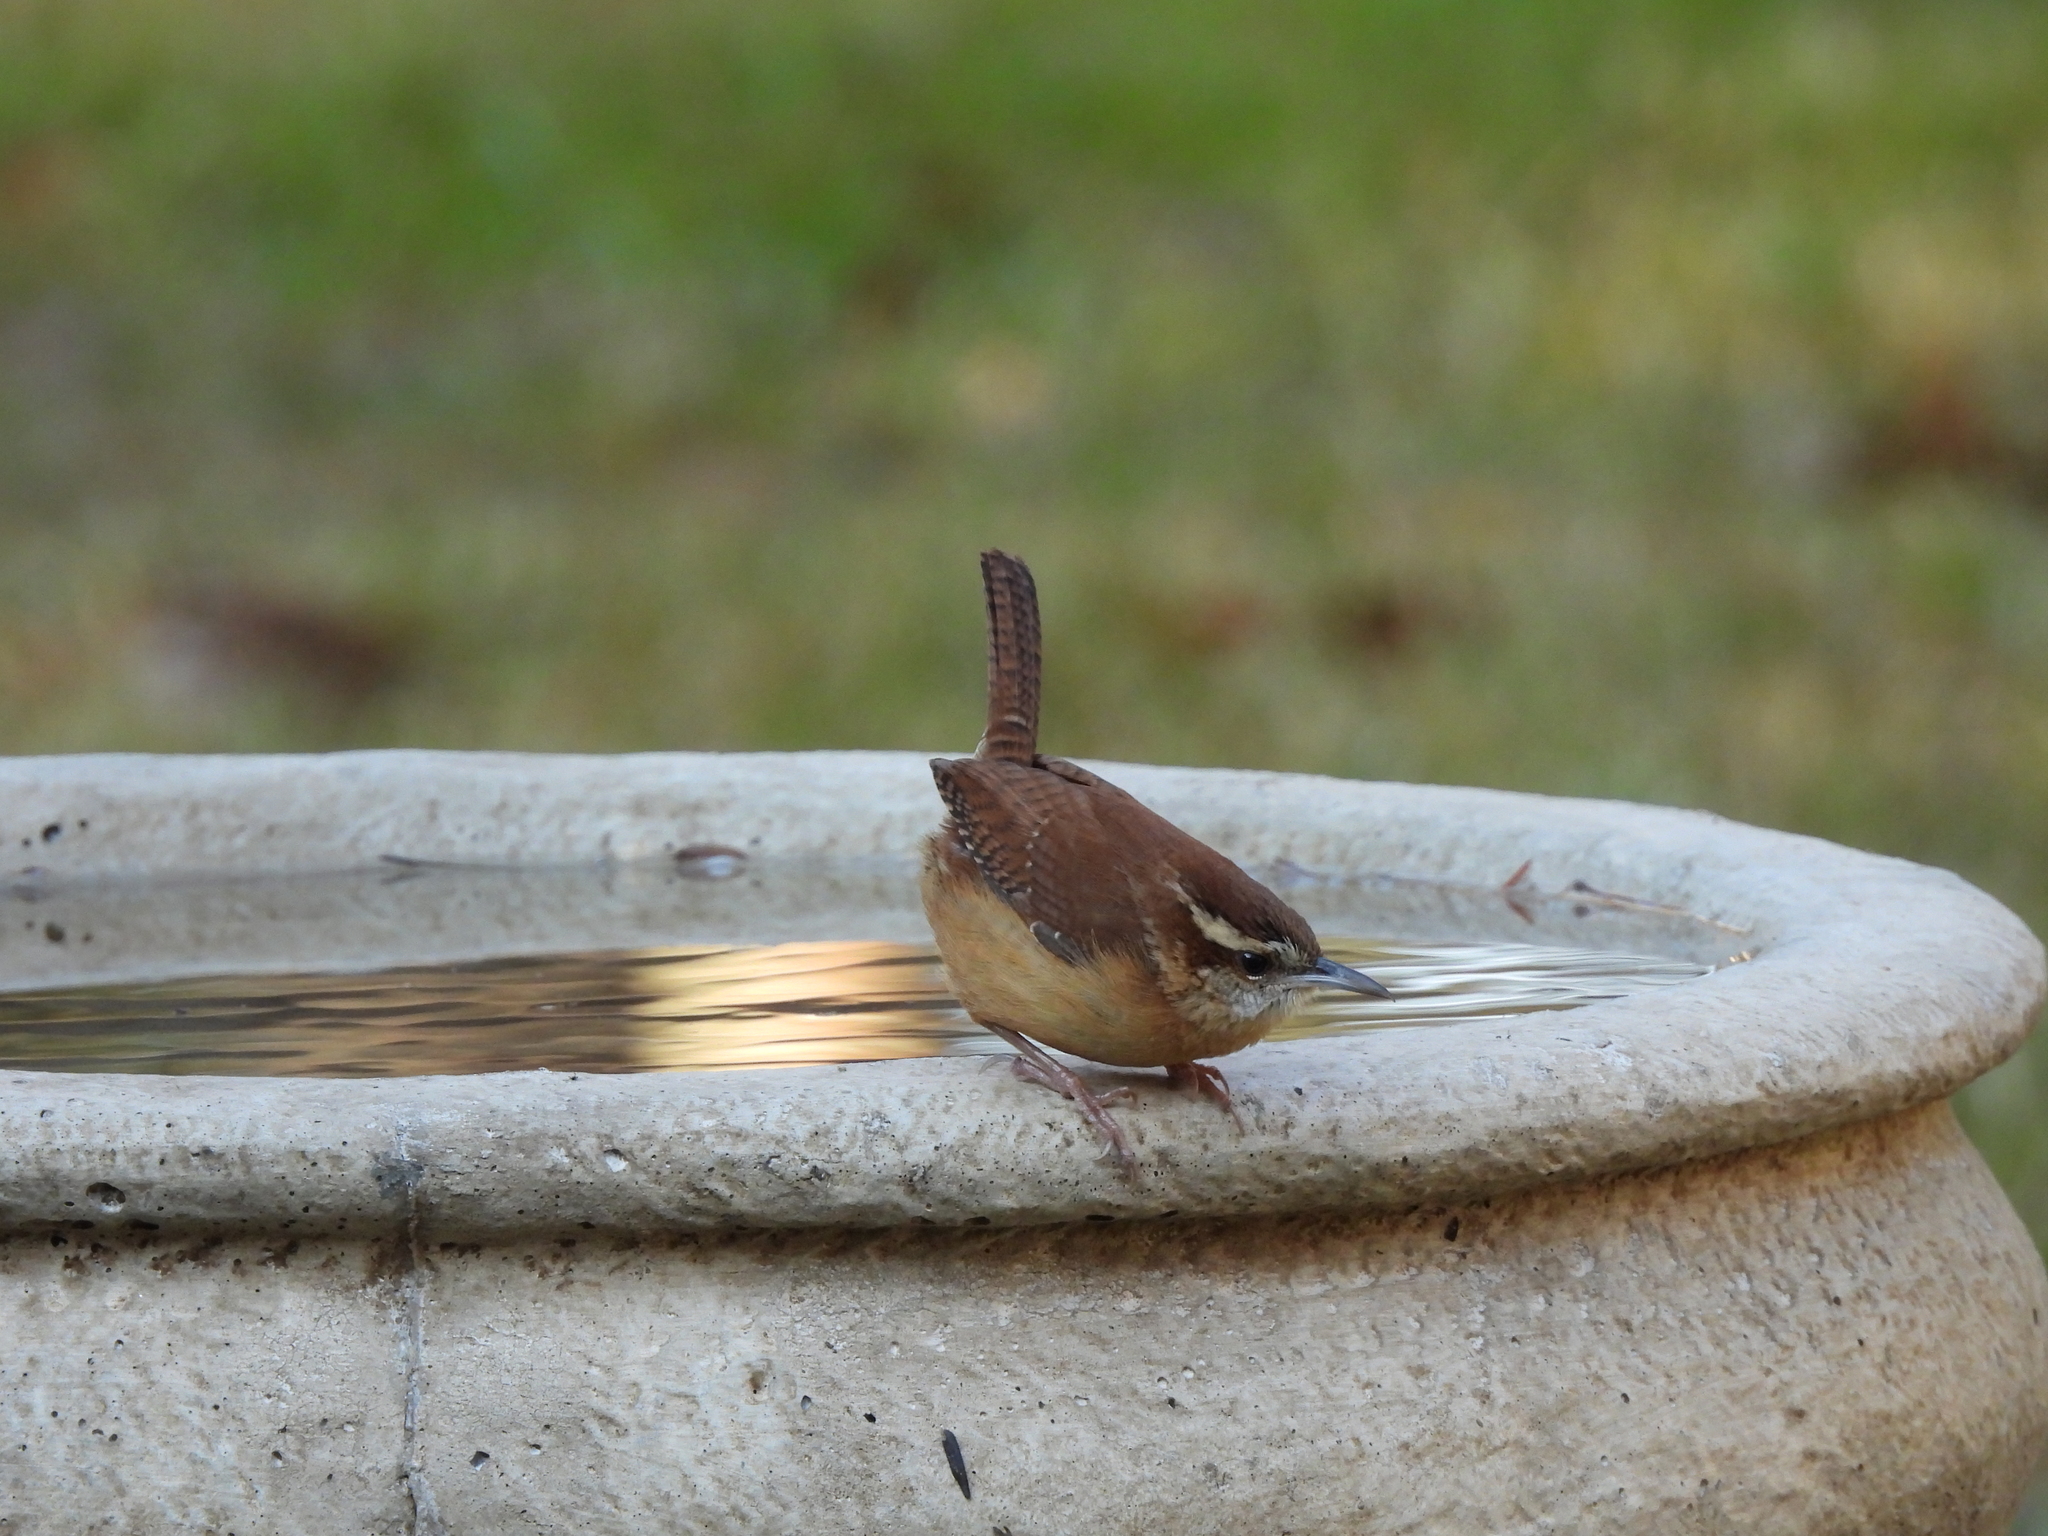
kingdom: Animalia
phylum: Chordata
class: Aves
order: Passeriformes
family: Troglodytidae
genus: Thryothorus
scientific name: Thryothorus ludovicianus
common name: Carolina wren
